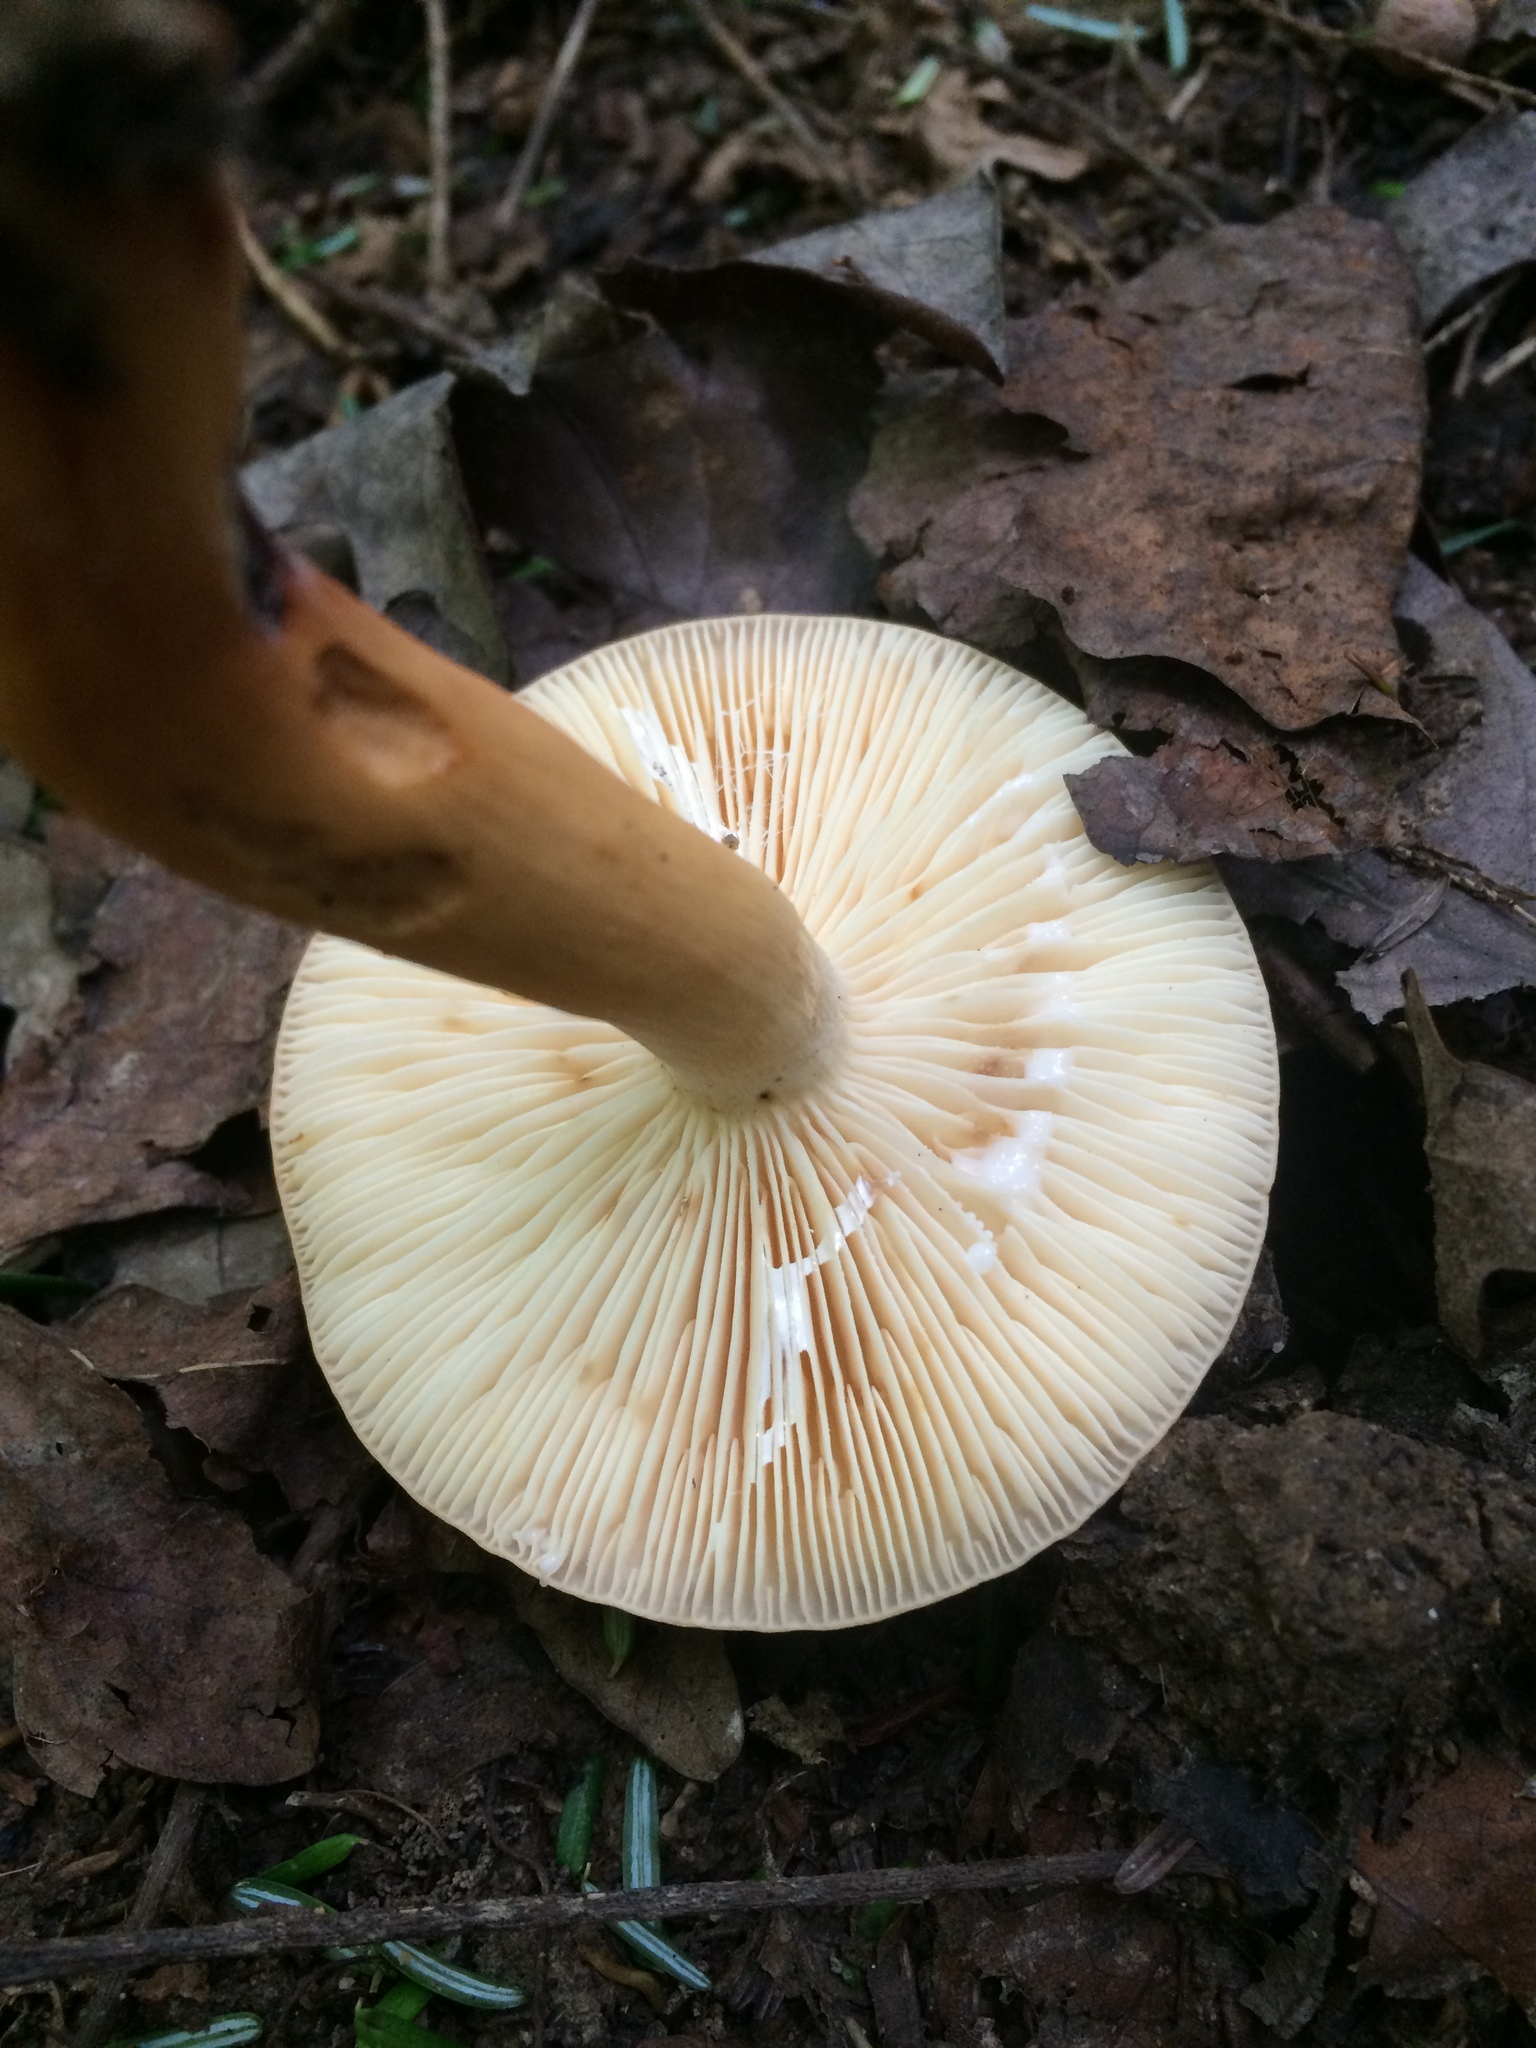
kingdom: Fungi
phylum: Basidiomycota
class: Agaricomycetes
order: Russulales
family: Russulaceae
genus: Lactifluus
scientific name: Lactifluus volemus
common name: Fishy milkcap
